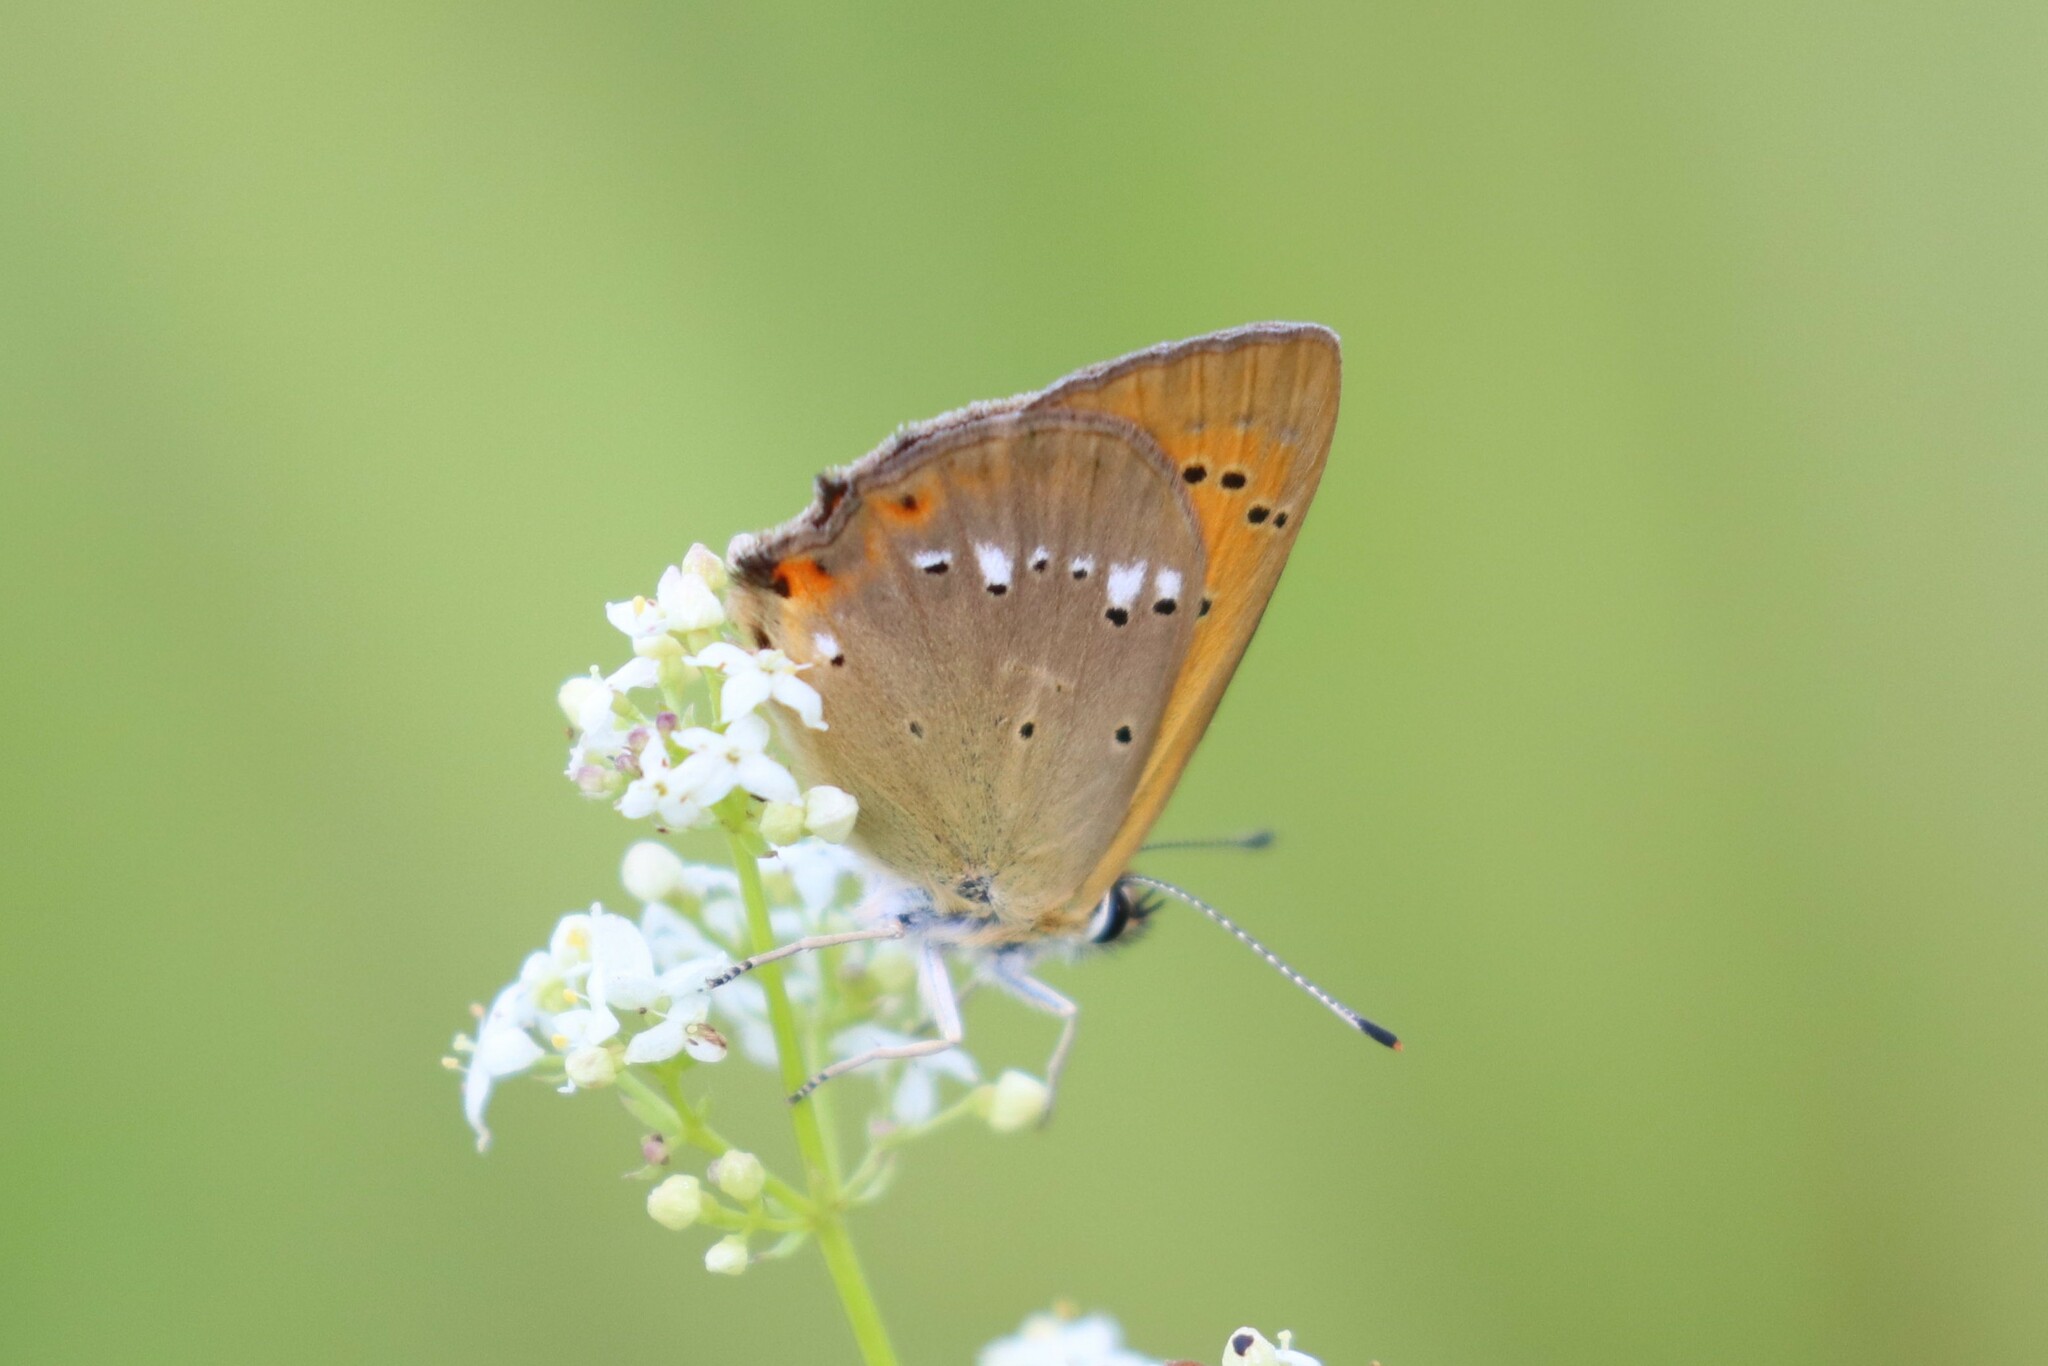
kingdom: Animalia
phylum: Arthropoda
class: Insecta
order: Lepidoptera
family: Lycaenidae
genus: Lycaena
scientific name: Lycaena virgaureae
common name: Scarce copper
